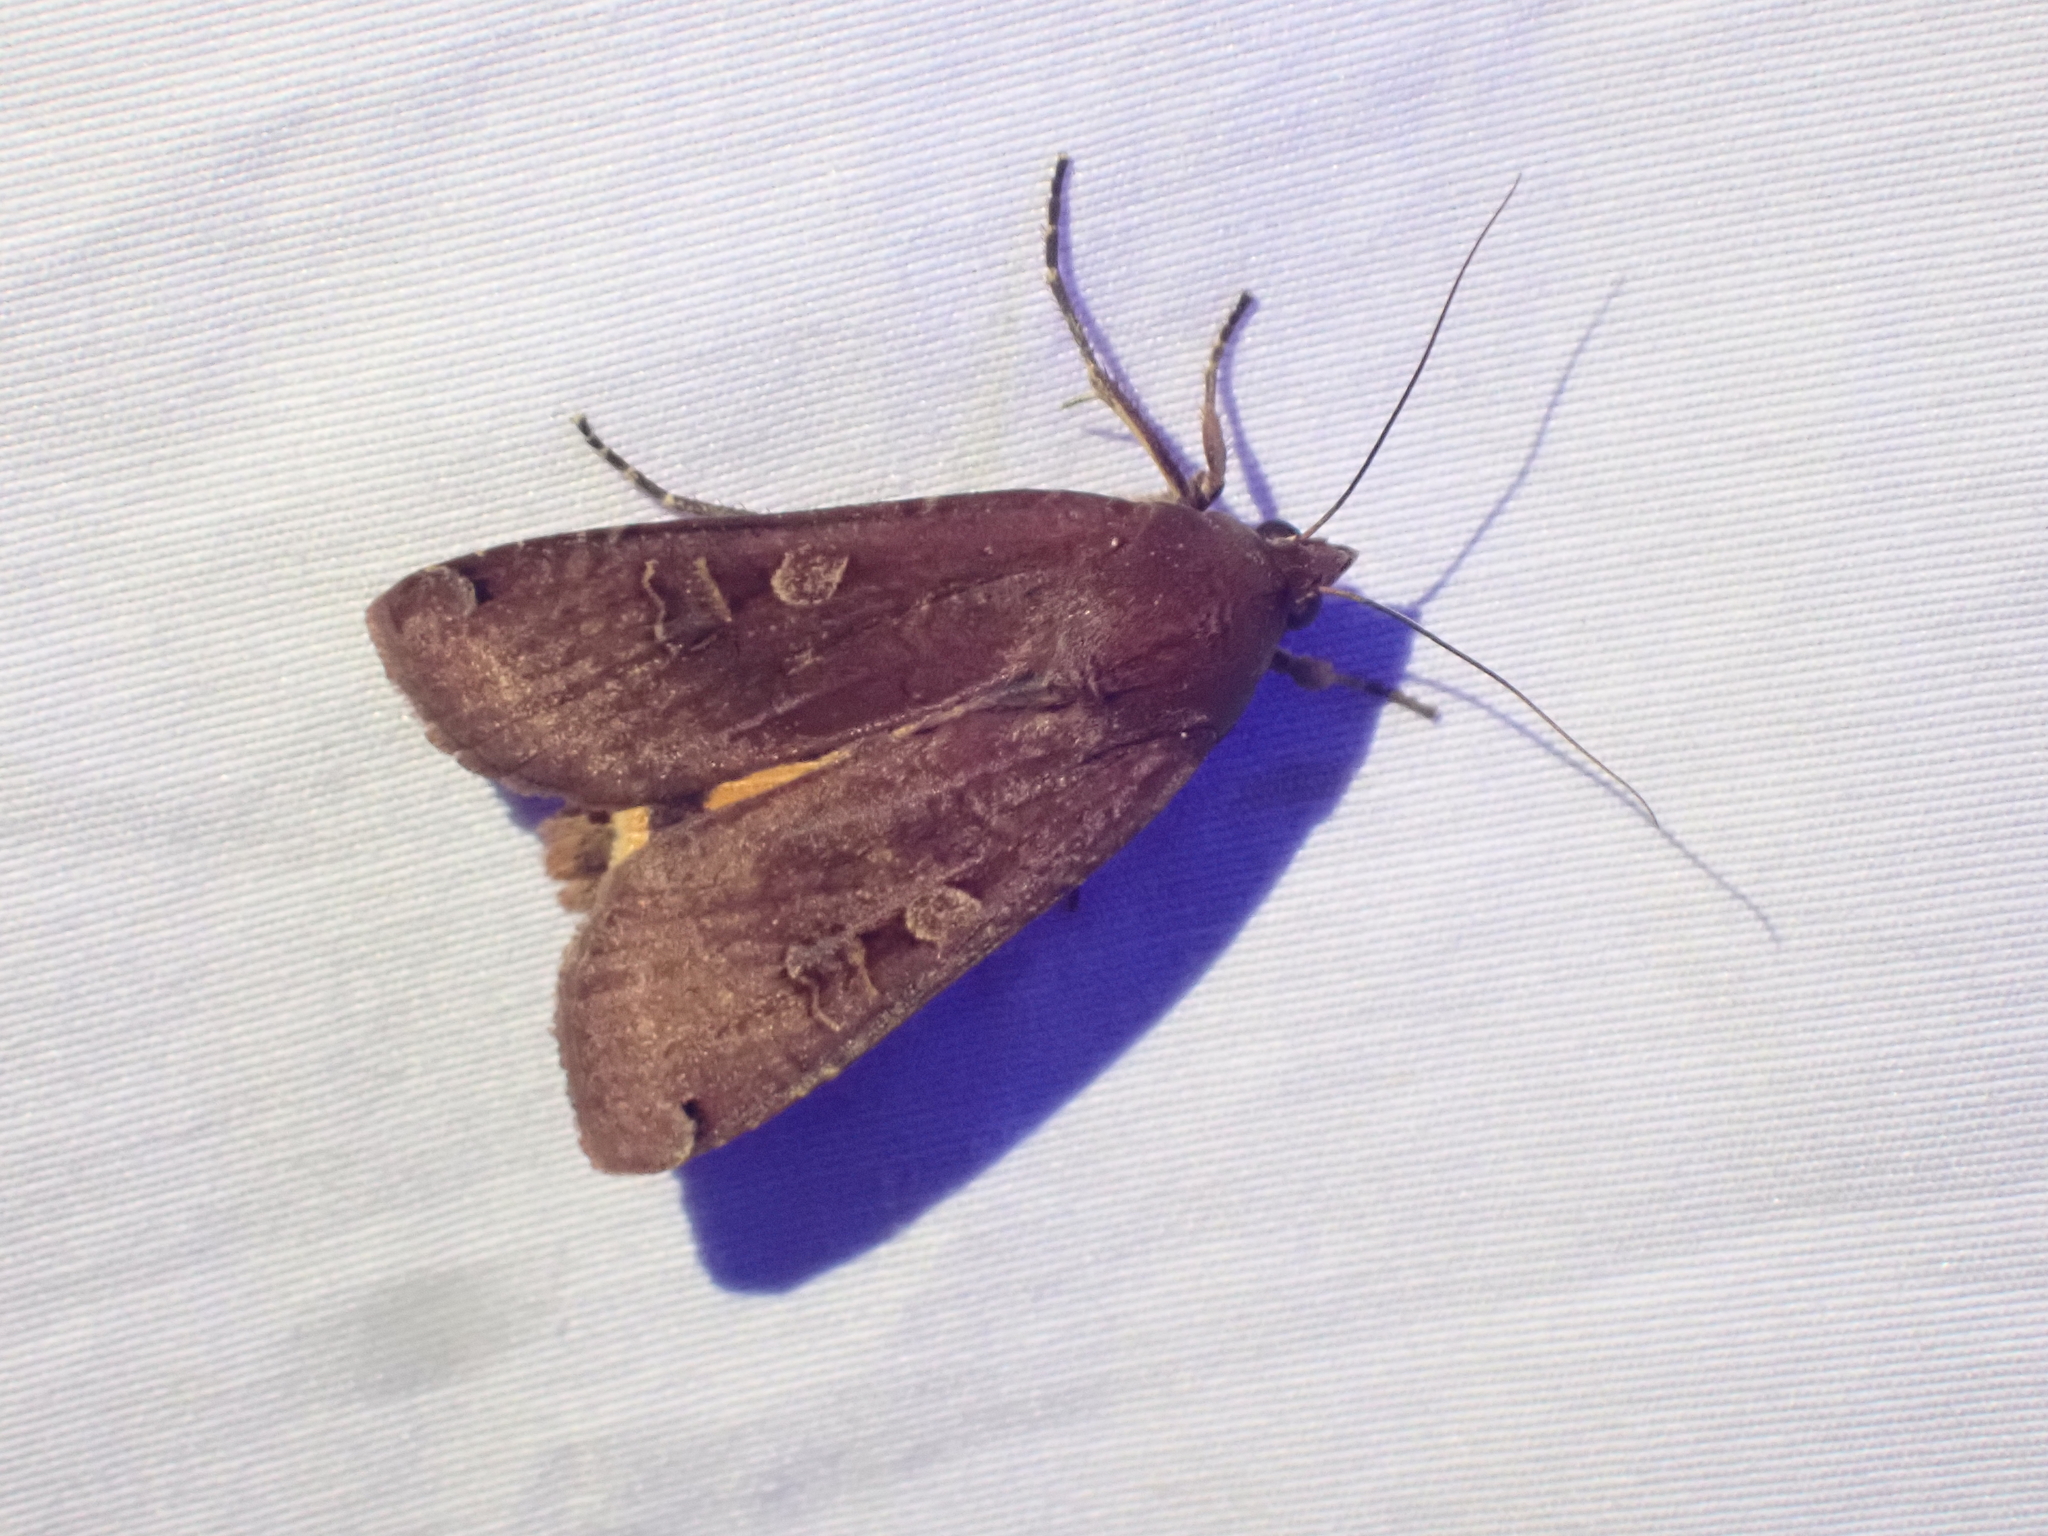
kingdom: Animalia
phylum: Arthropoda
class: Insecta
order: Lepidoptera
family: Noctuidae
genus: Noctua
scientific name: Noctua pronuba
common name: Large yellow underwing
